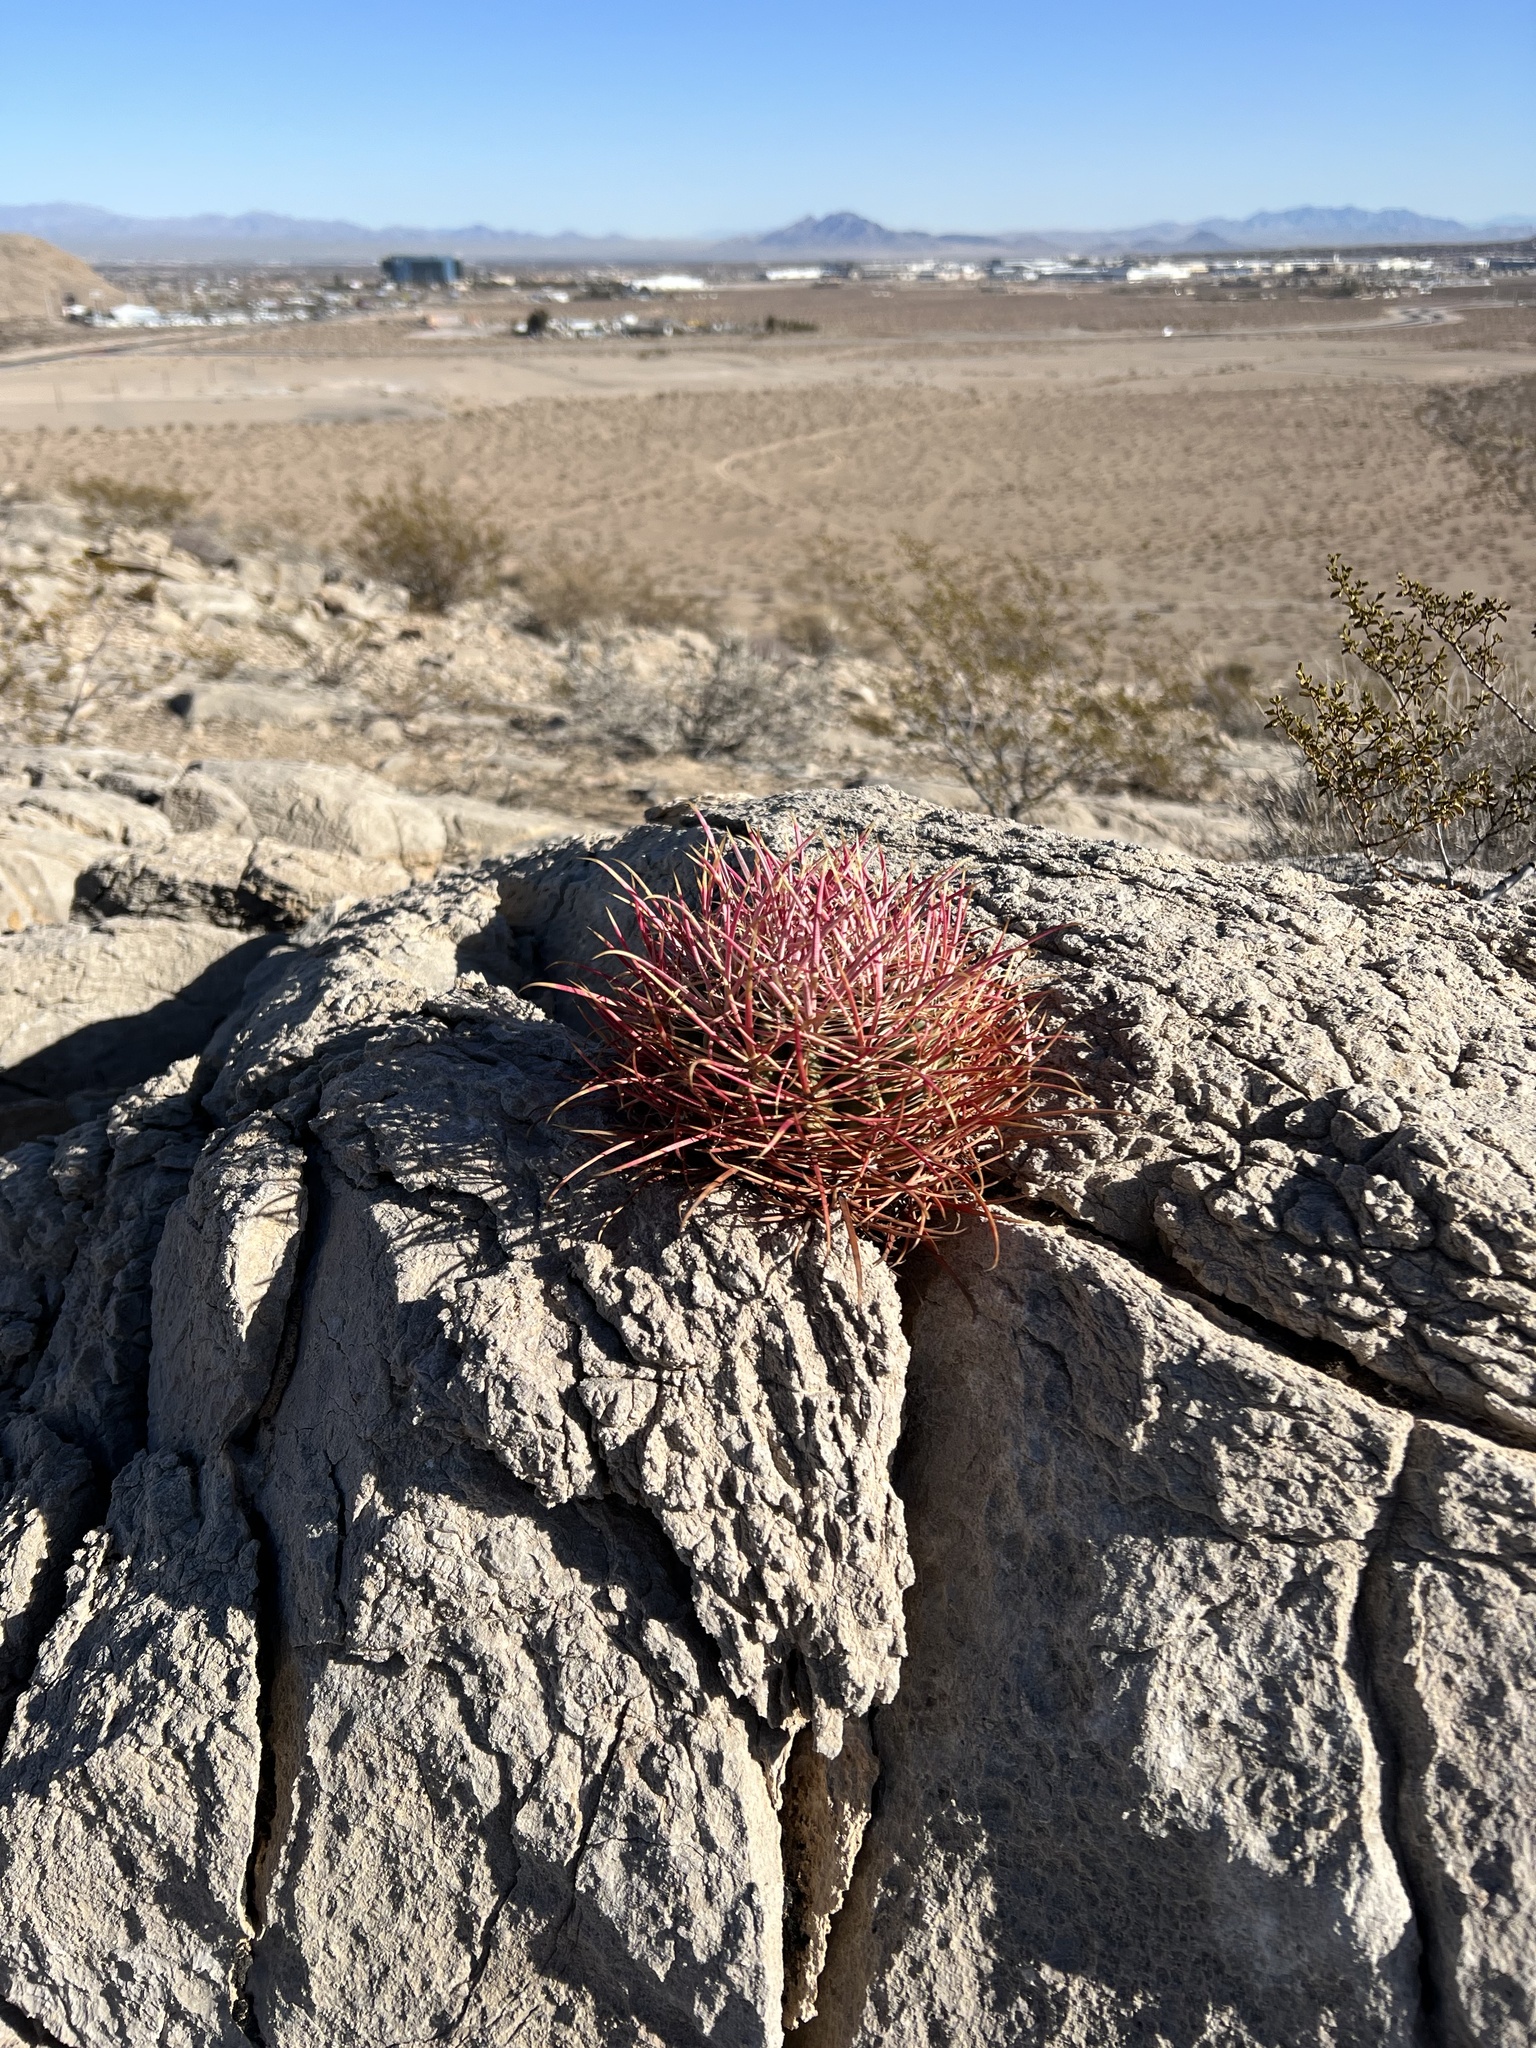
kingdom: Plantae
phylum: Tracheophyta
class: Magnoliopsida
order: Caryophyllales
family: Cactaceae
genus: Ferocactus
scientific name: Ferocactus cylindraceus
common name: California barrel cactus
